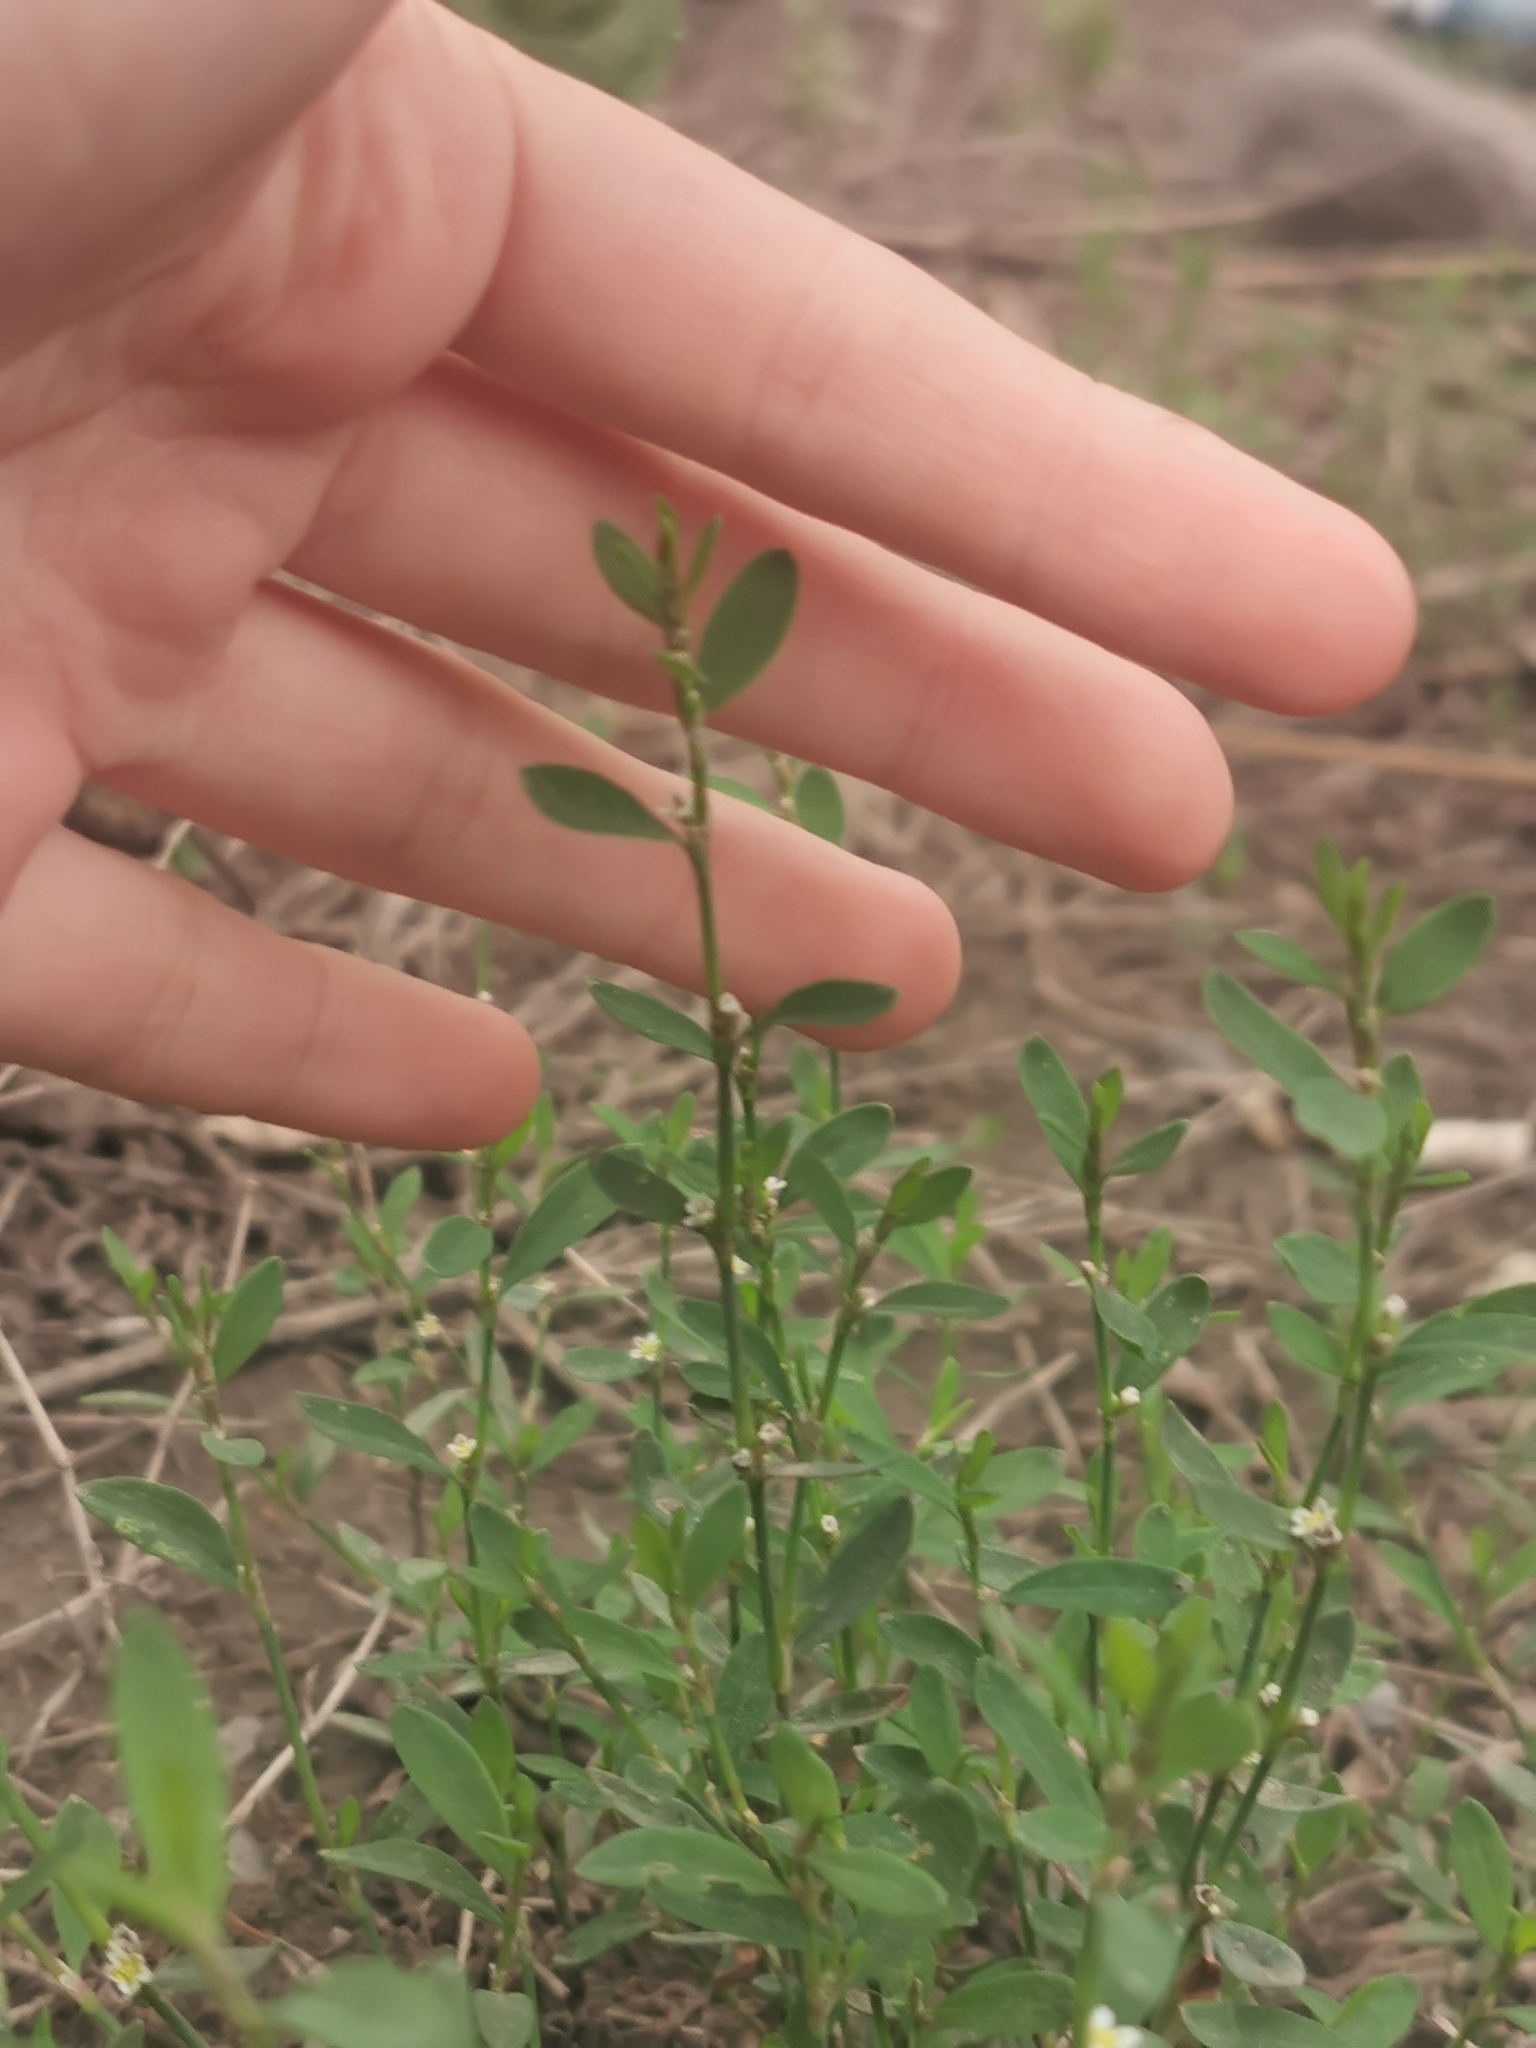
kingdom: Plantae
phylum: Tracheophyta
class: Magnoliopsida
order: Caryophyllales
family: Polygonaceae
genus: Polygonum
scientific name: Polygonum
